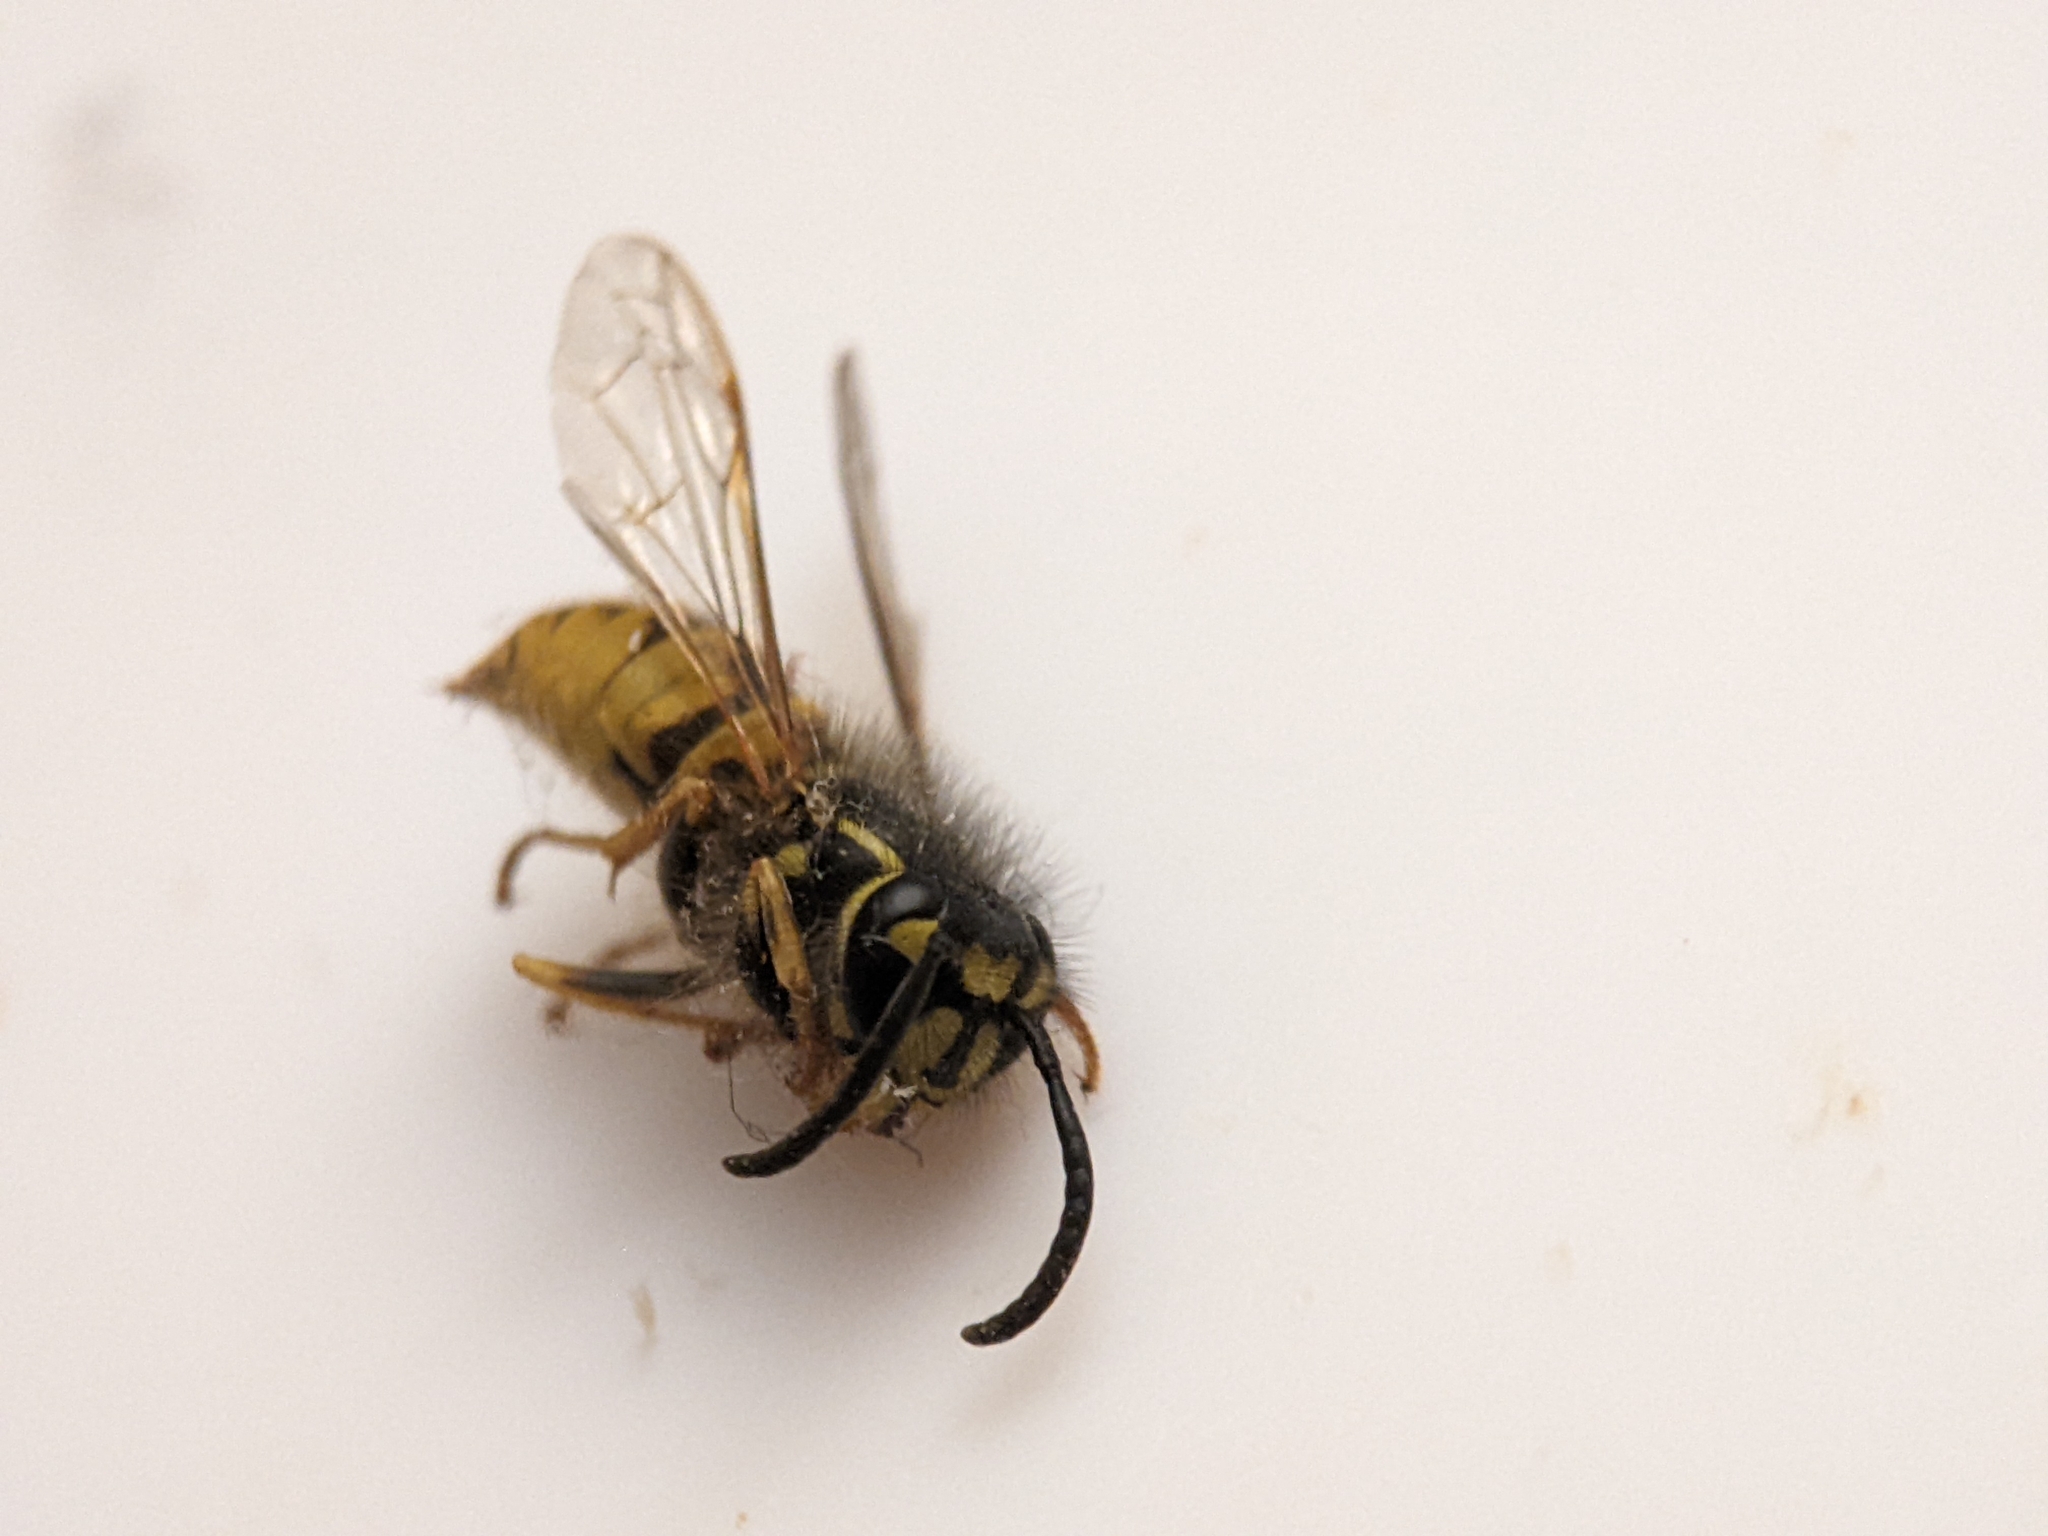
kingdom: Animalia
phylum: Arthropoda
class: Insecta
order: Hymenoptera
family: Vespidae
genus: Vespula
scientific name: Vespula vulgaris
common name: Common wasp
